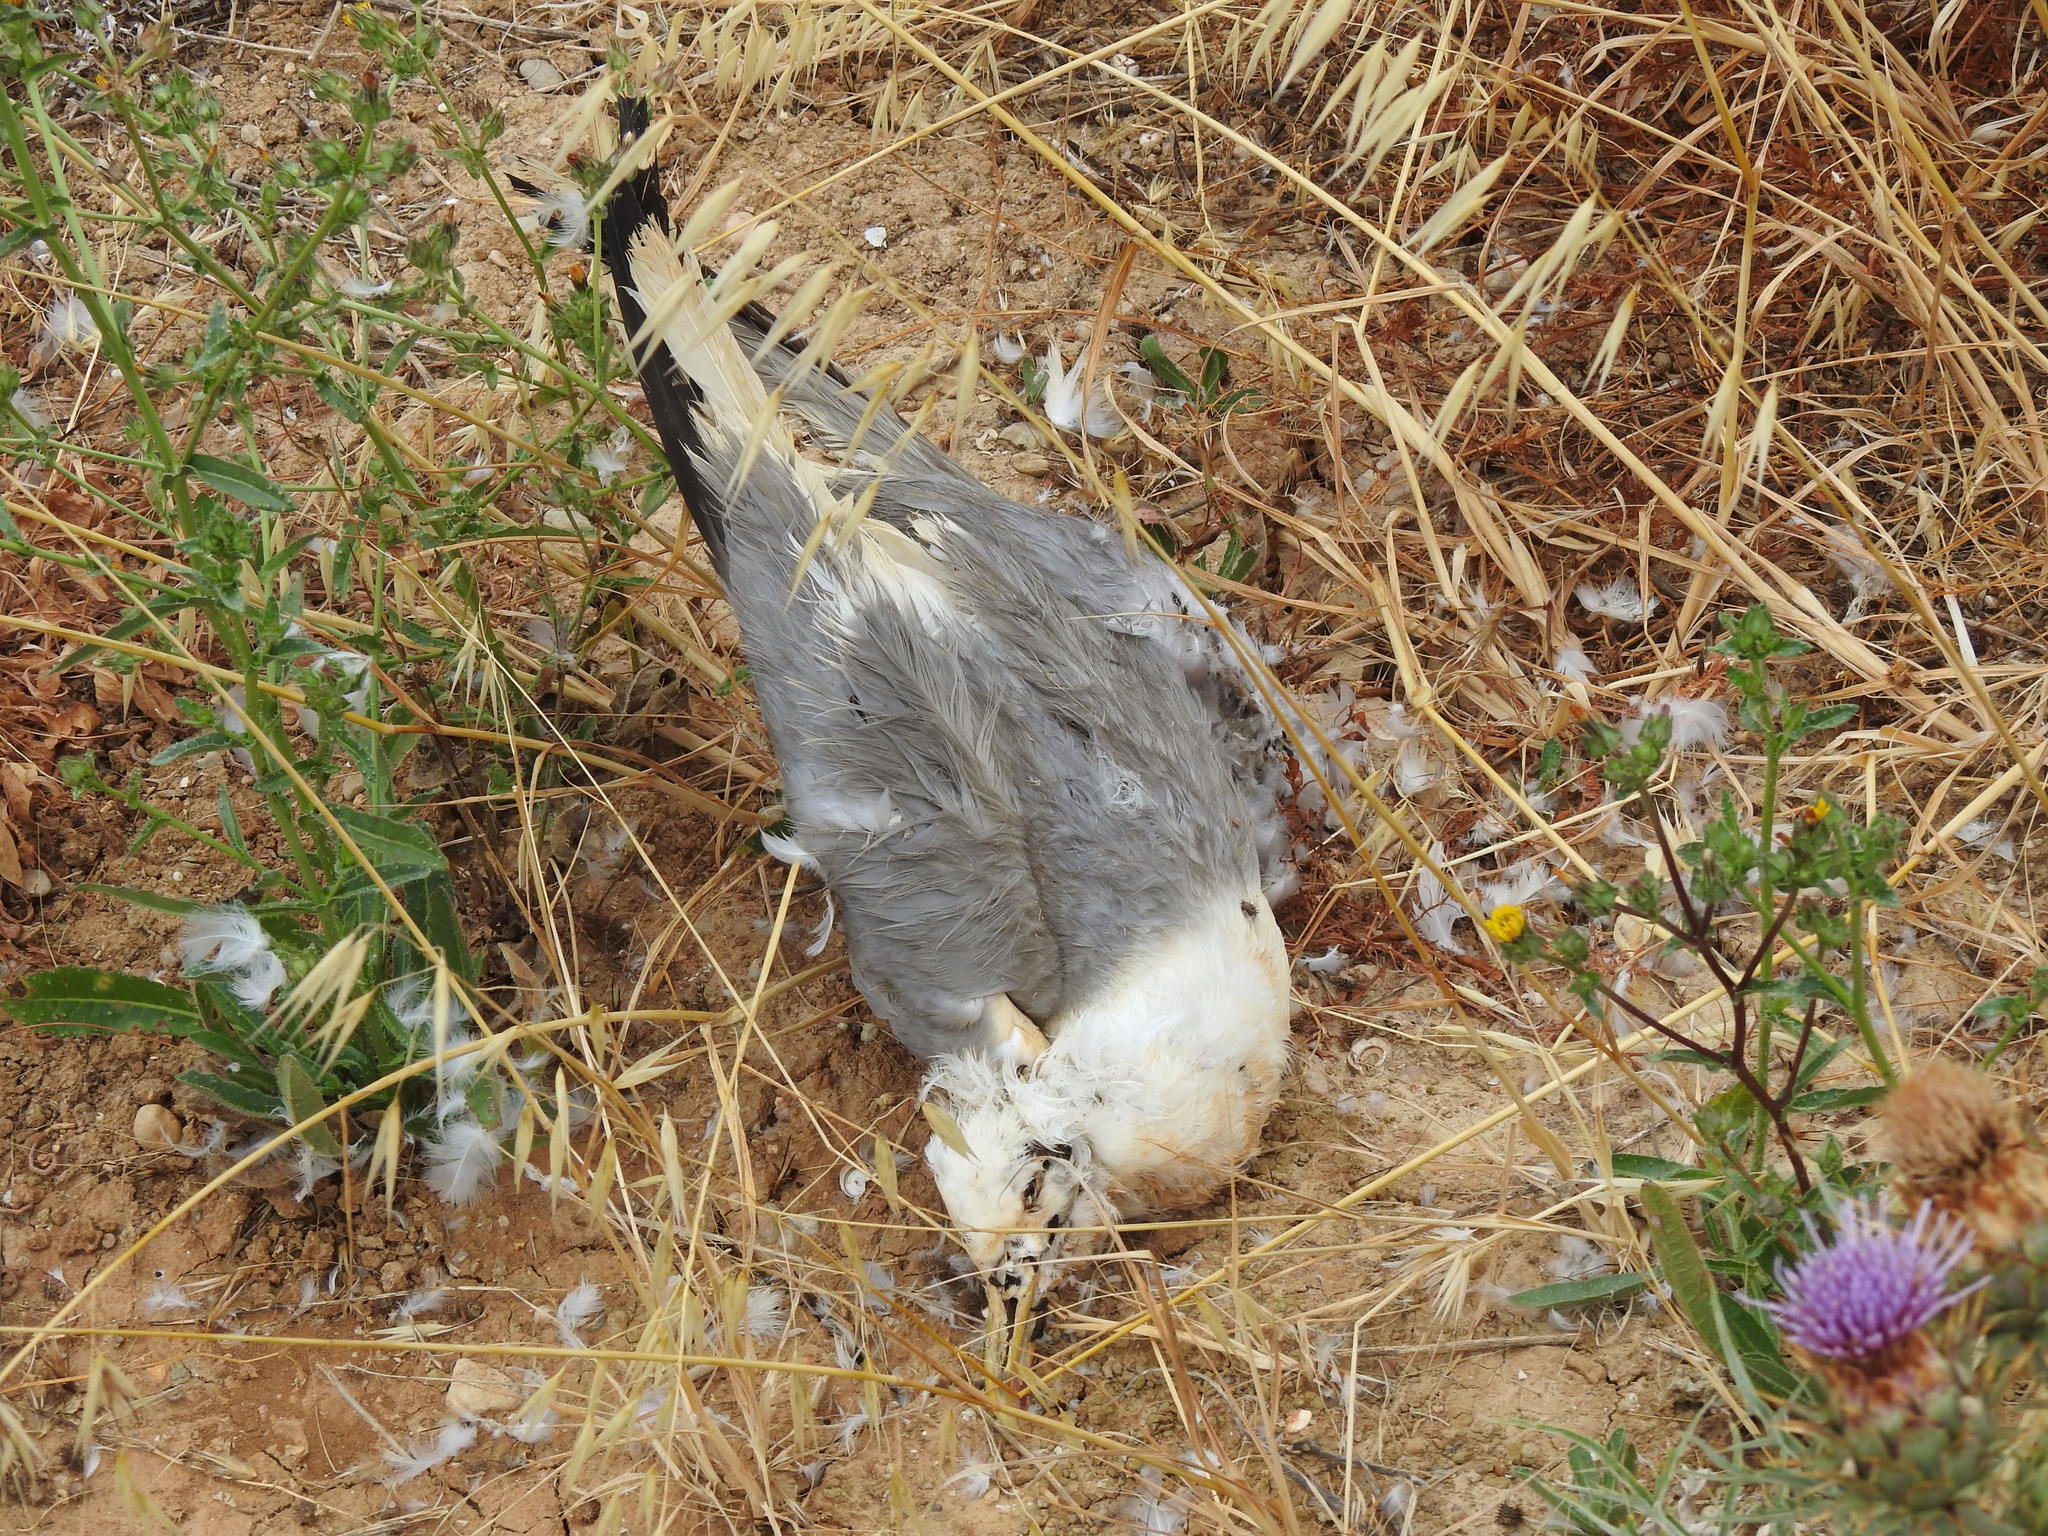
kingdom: Animalia
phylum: Chordata
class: Aves
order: Charadriiformes
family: Laridae
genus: Larus
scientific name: Larus michahellis
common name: Yellow-legged gull
